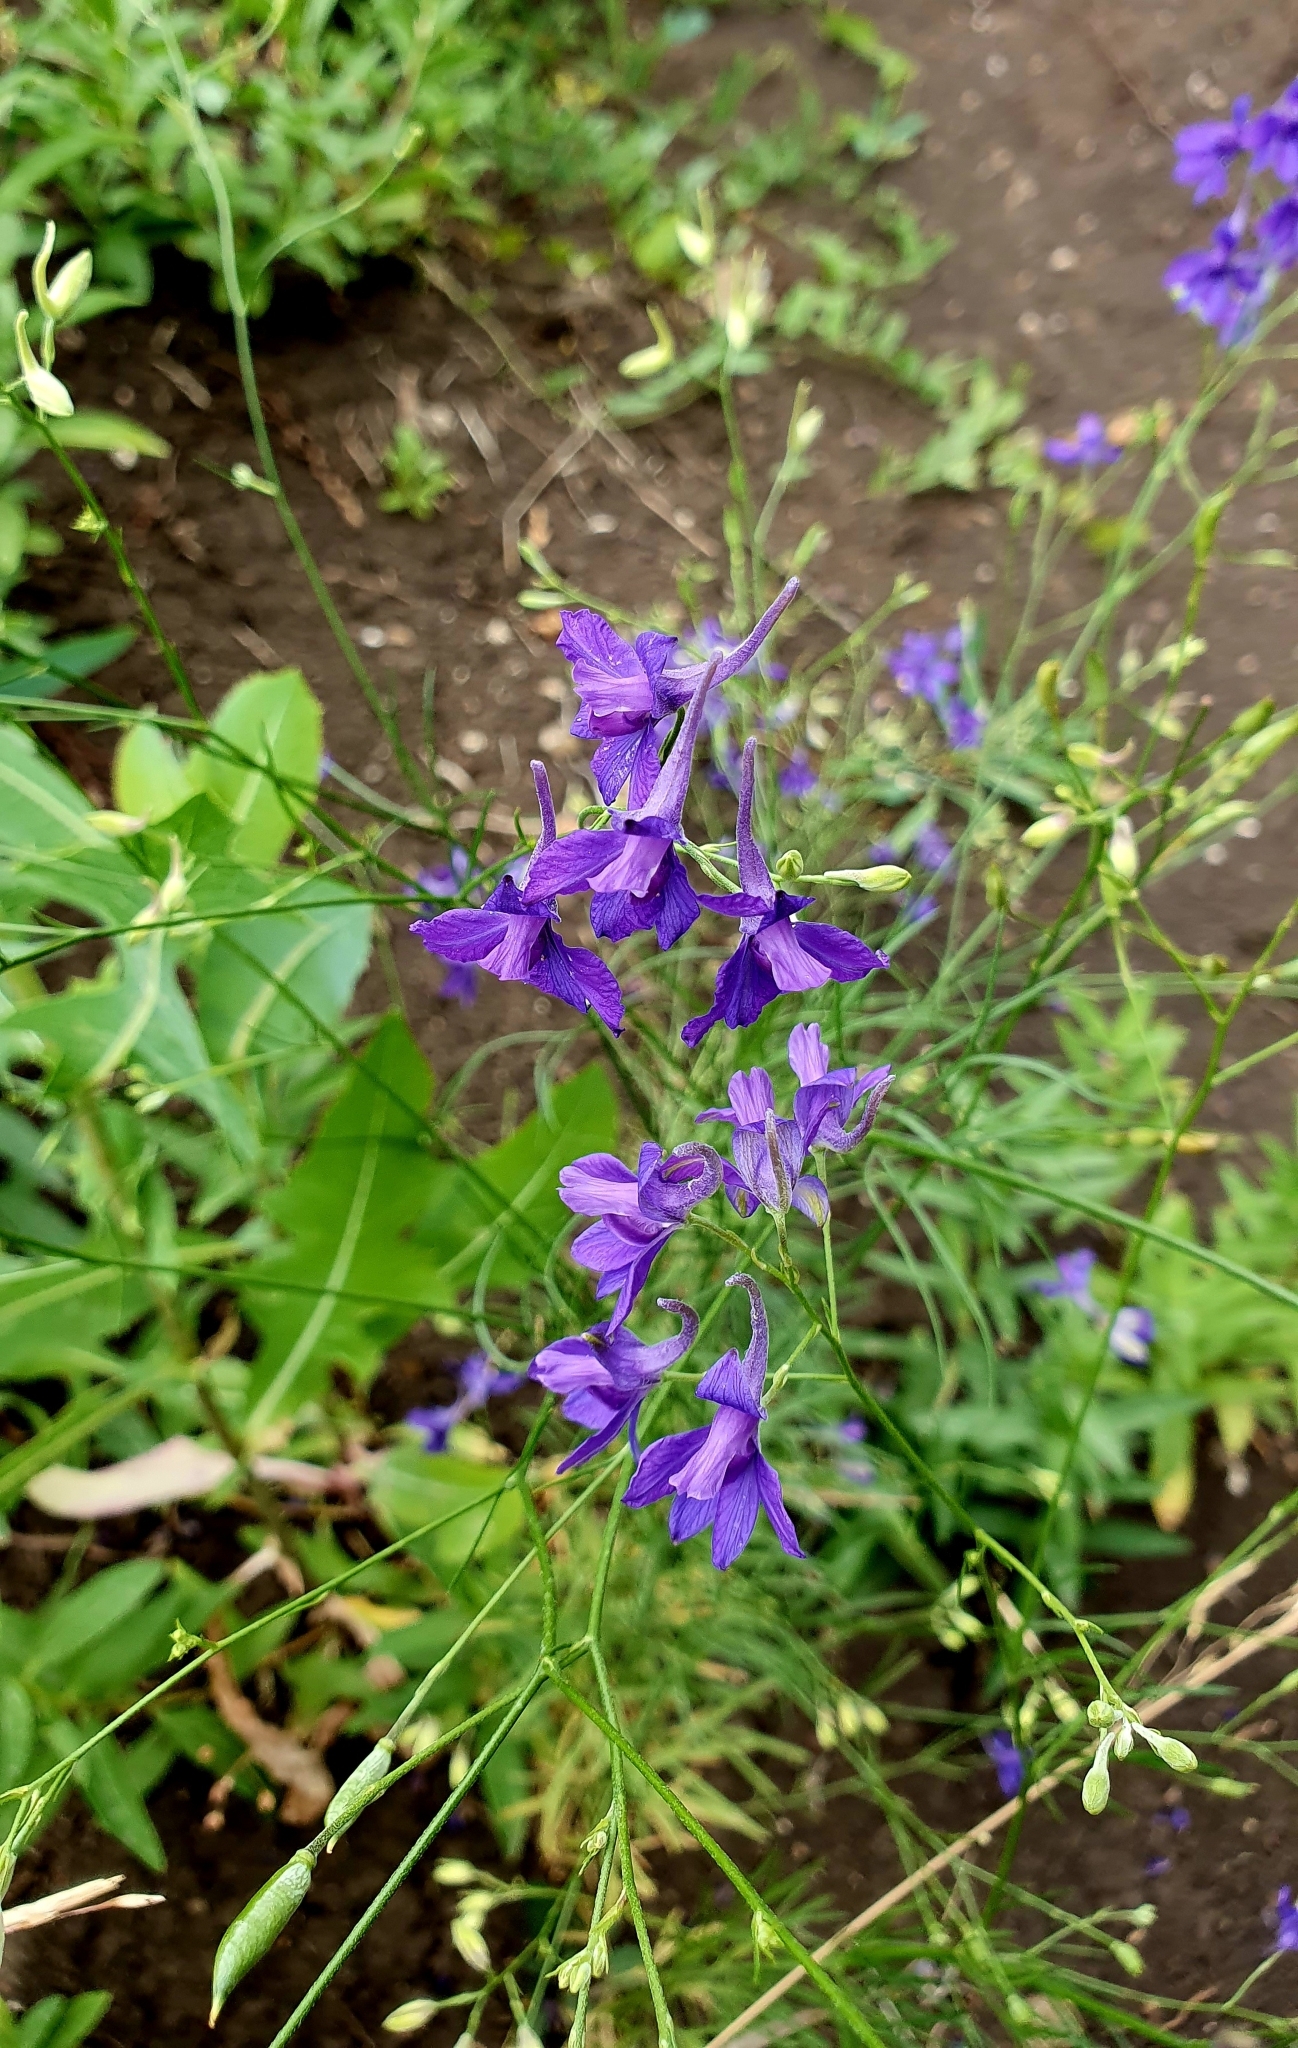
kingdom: Plantae
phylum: Tracheophyta
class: Magnoliopsida
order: Ranunculales
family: Ranunculaceae
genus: Delphinium
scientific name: Delphinium consolida
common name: Branching larkspur
